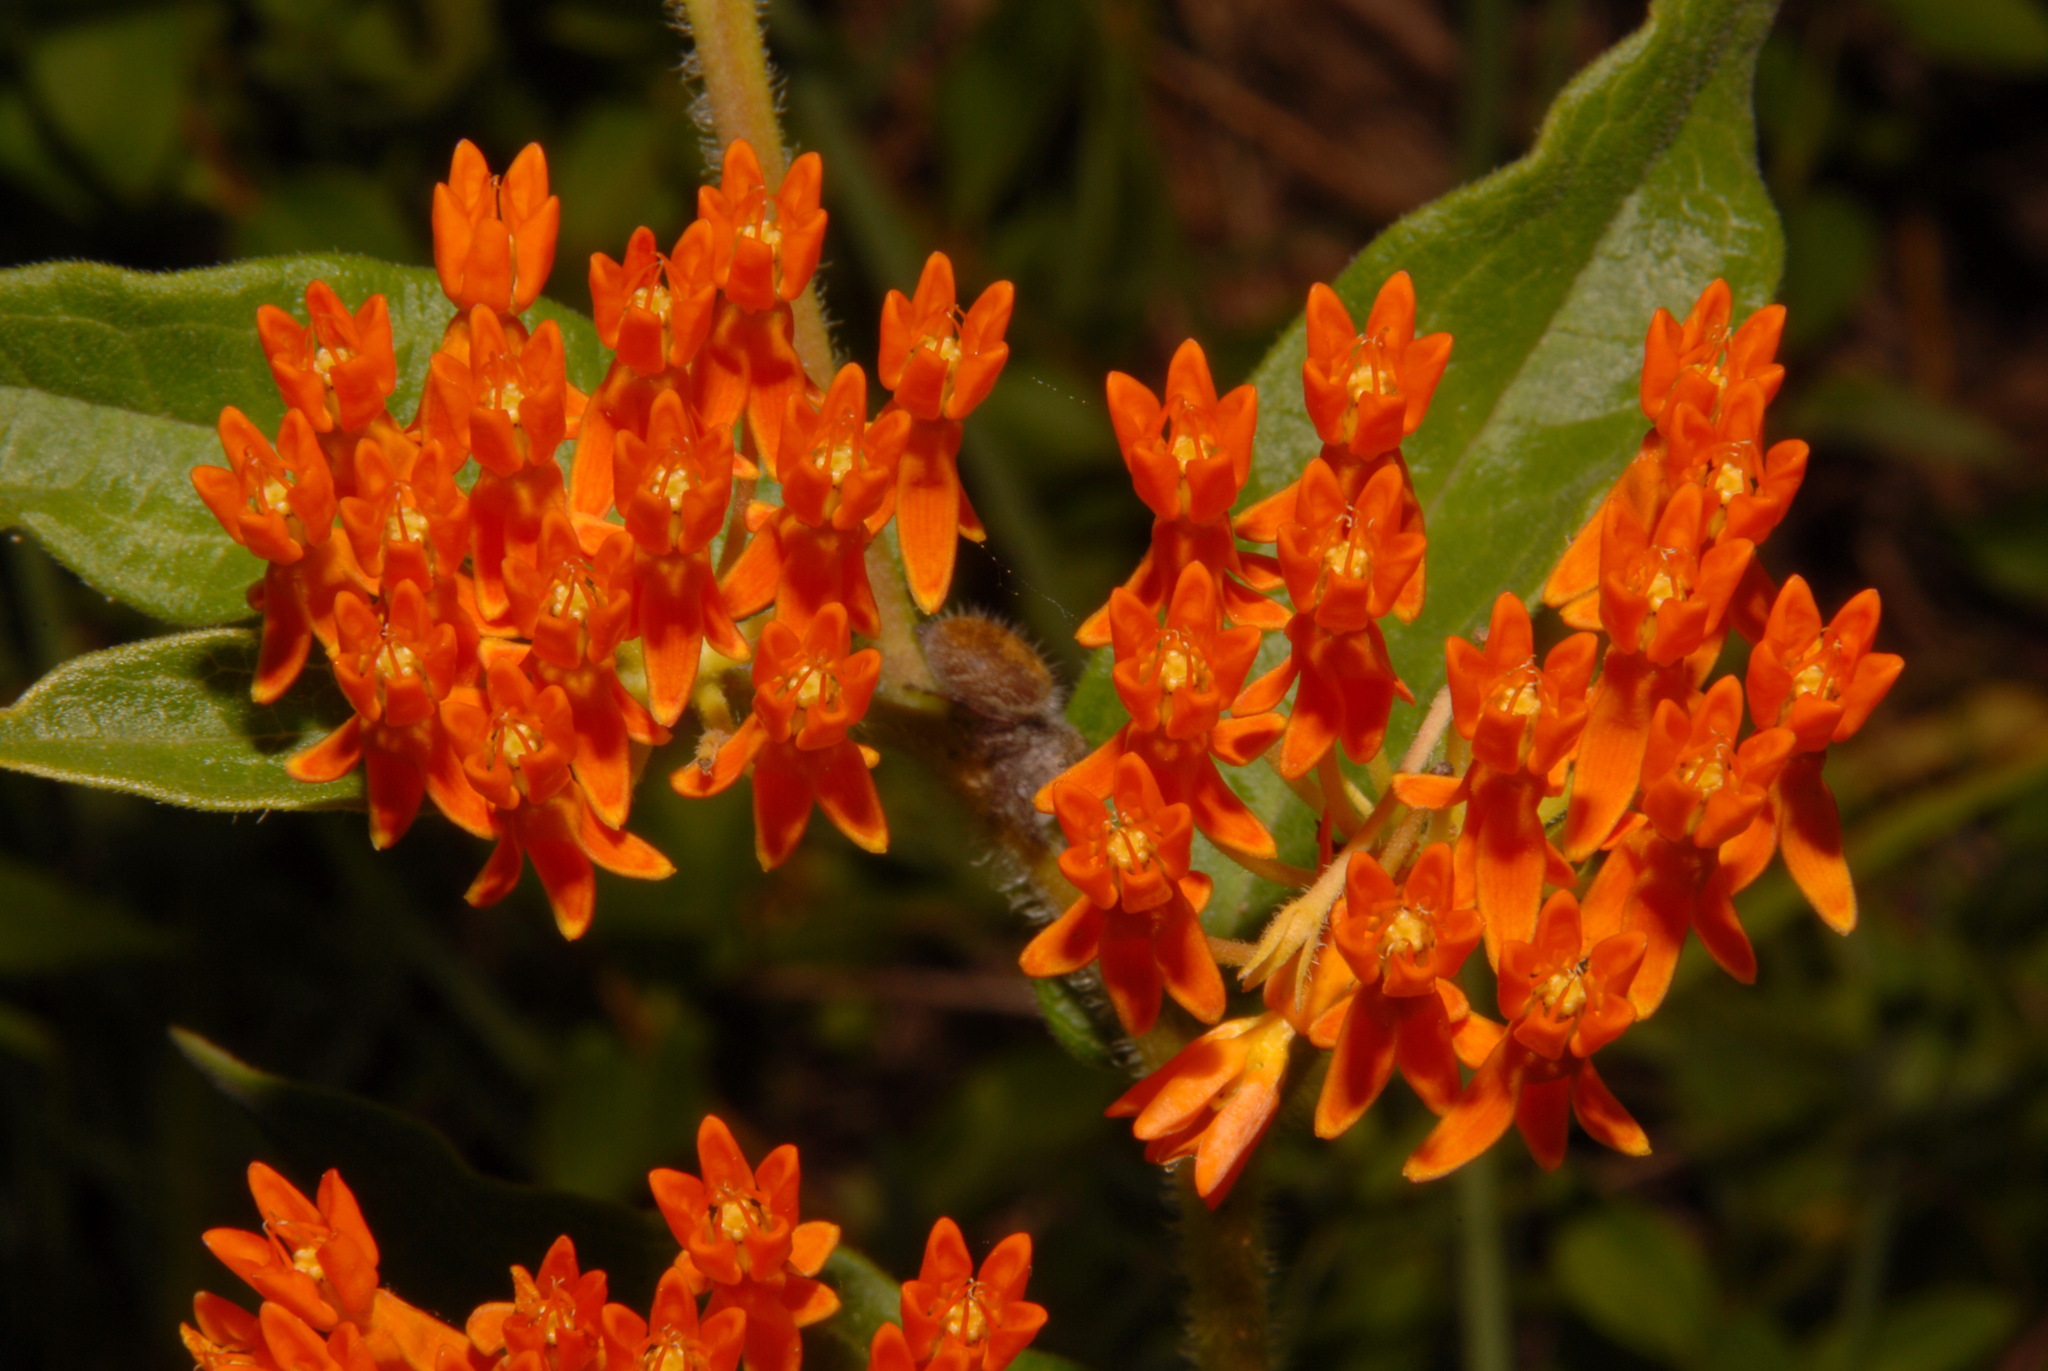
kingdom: Plantae
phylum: Tracheophyta
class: Magnoliopsida
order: Gentianales
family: Apocynaceae
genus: Asclepias
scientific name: Asclepias tuberosa
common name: Butterfly milkweed
